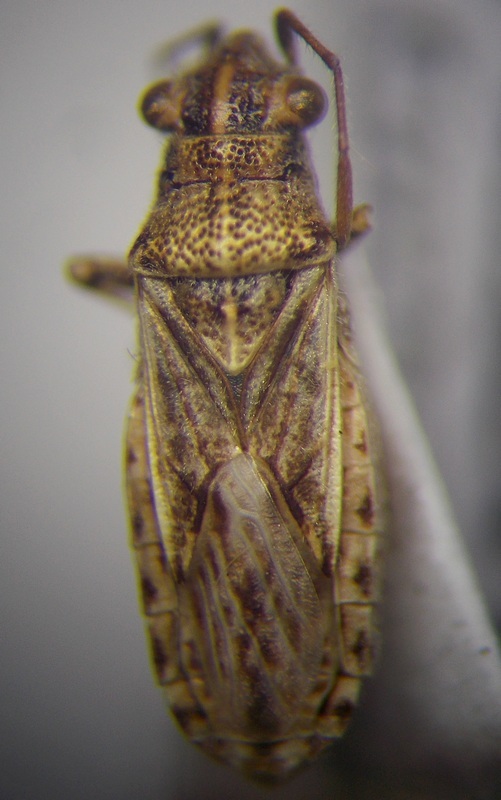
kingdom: Animalia
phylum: Arthropoda
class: Insecta
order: Hemiptera
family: Lygaeidae
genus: Ortholomus
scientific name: Ortholomus punctipennis
